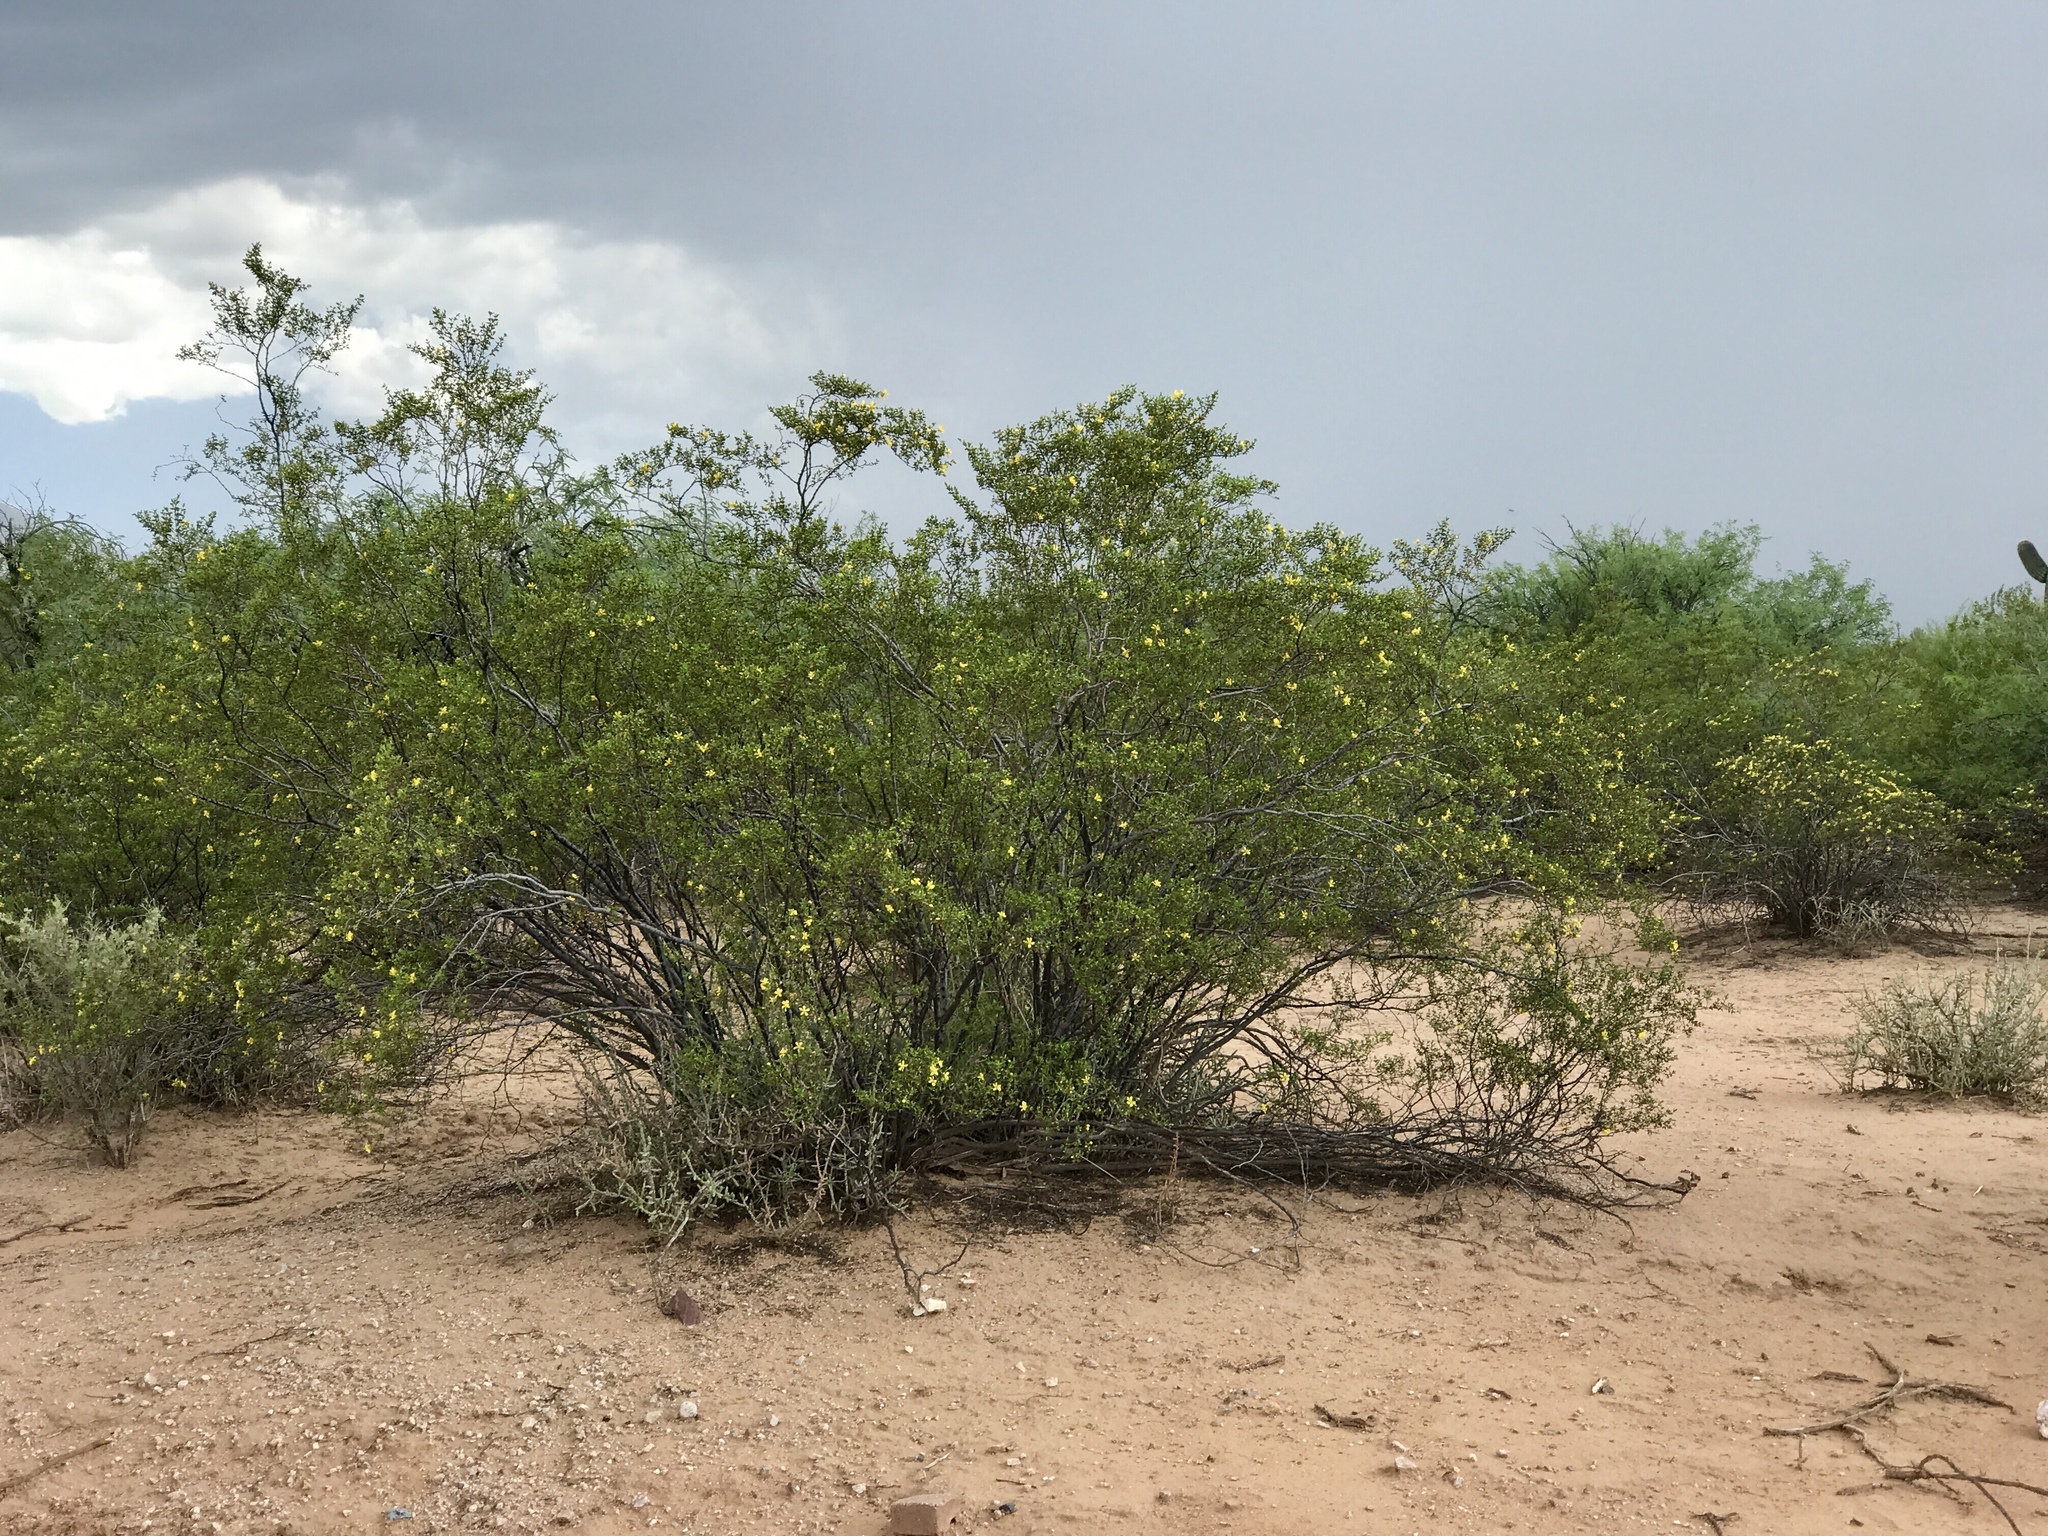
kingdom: Plantae
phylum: Tracheophyta
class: Magnoliopsida
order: Zygophyllales
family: Zygophyllaceae
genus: Larrea
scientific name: Larrea tridentata
